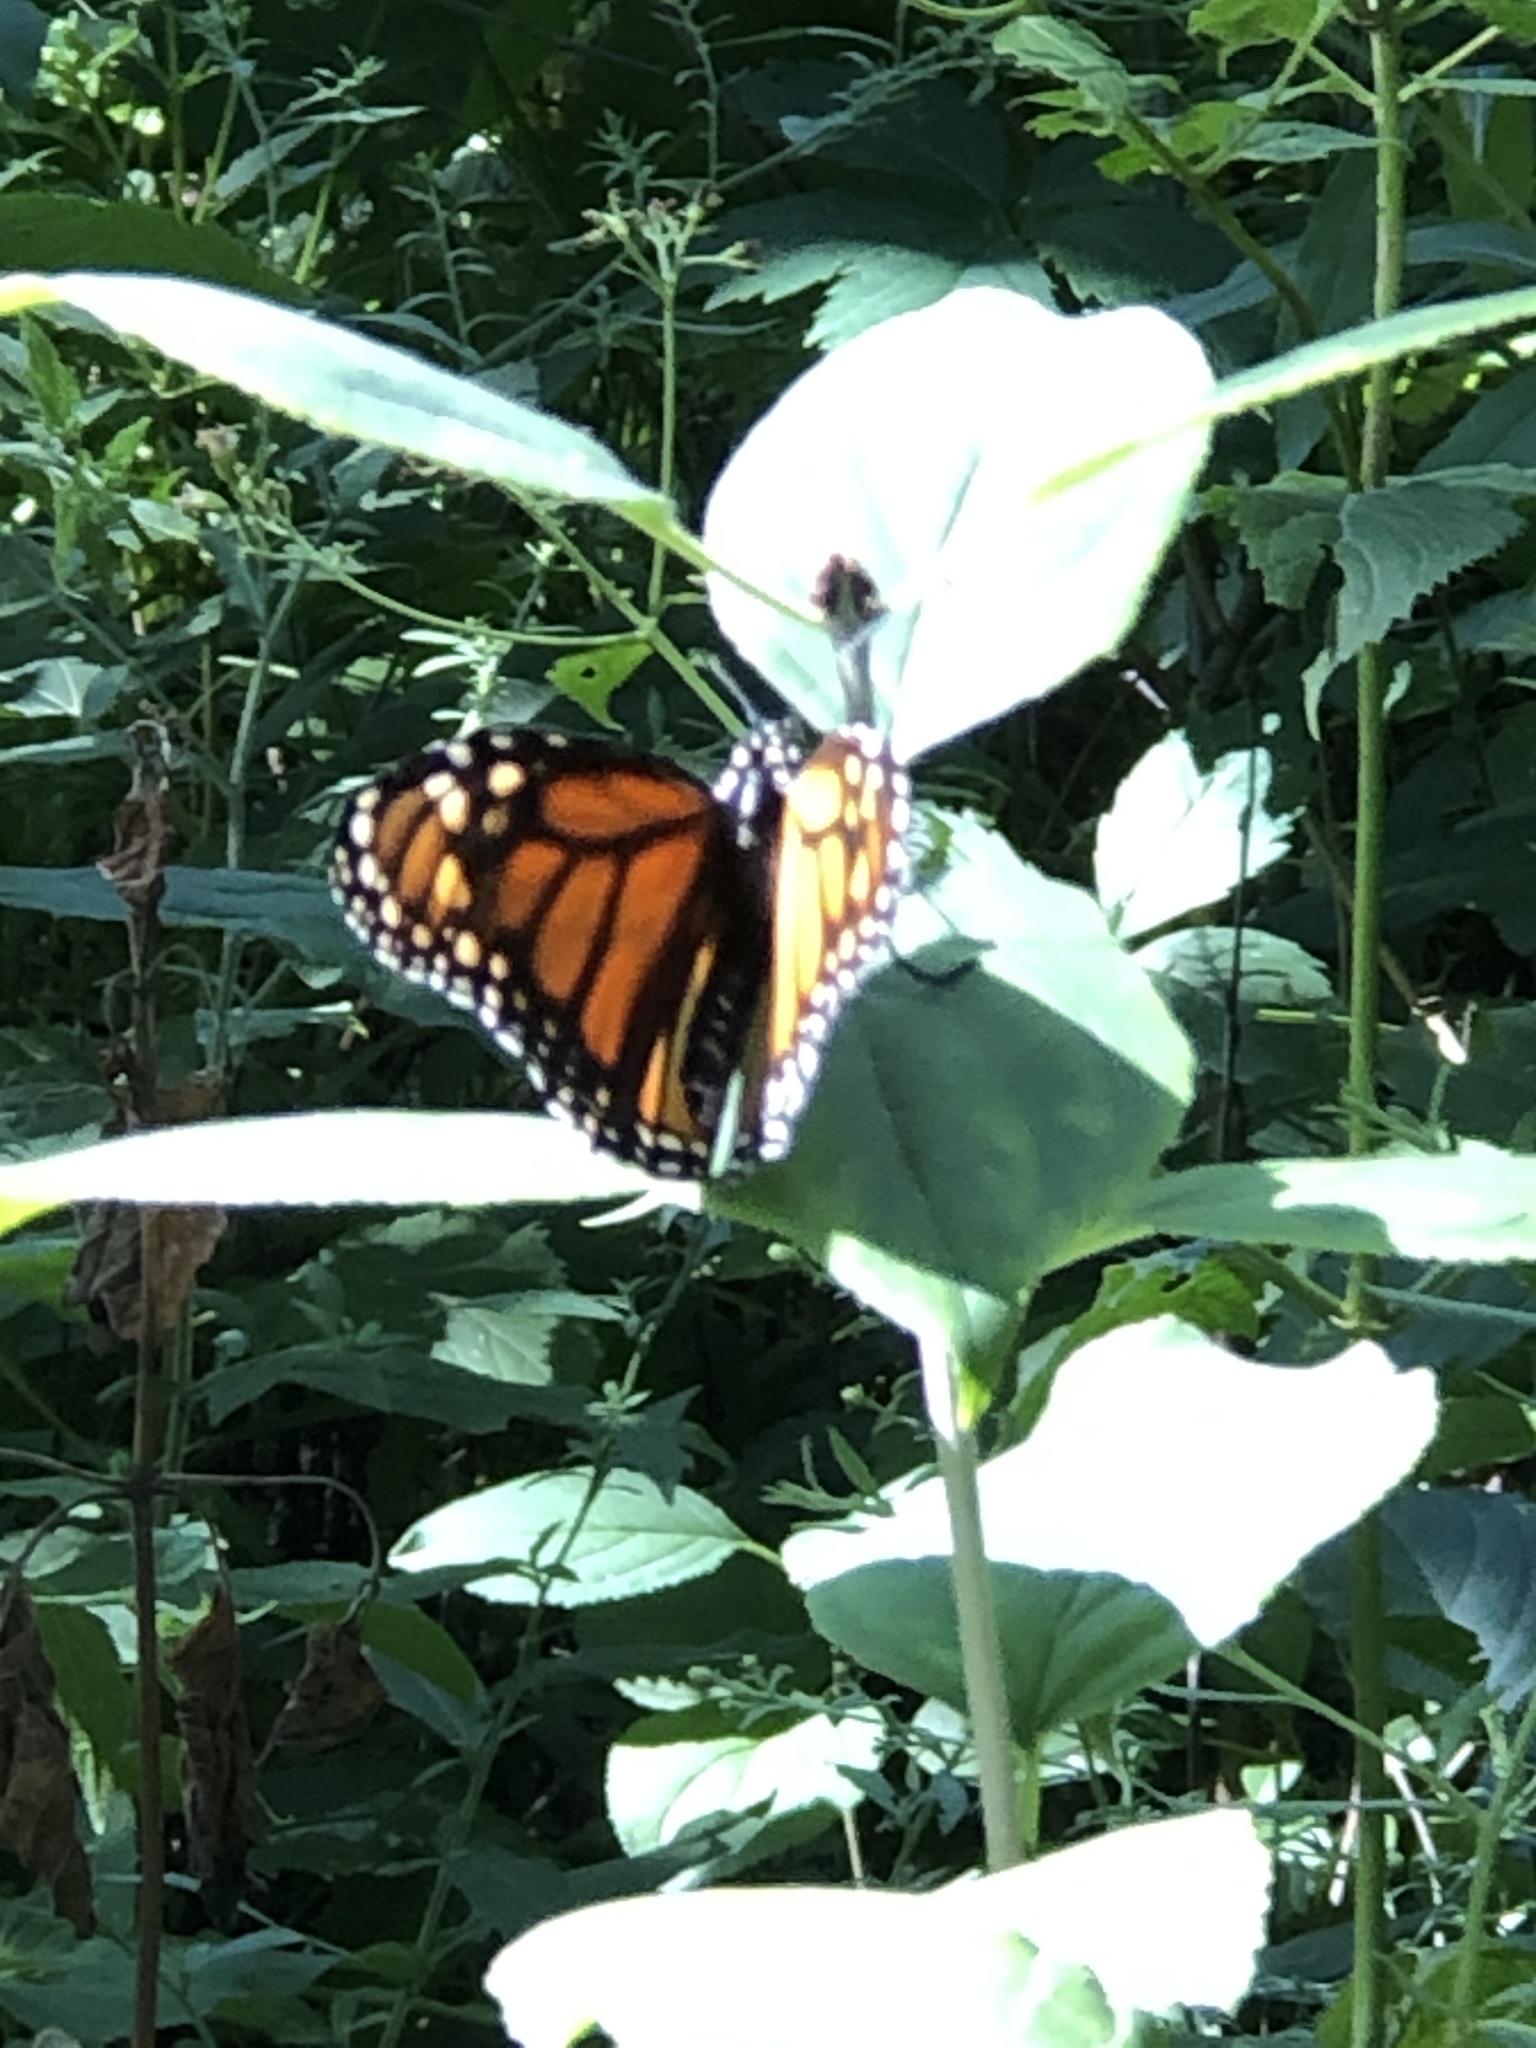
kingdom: Animalia
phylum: Arthropoda
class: Insecta
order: Lepidoptera
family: Nymphalidae
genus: Danaus
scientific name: Danaus plexippus
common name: Monarch
